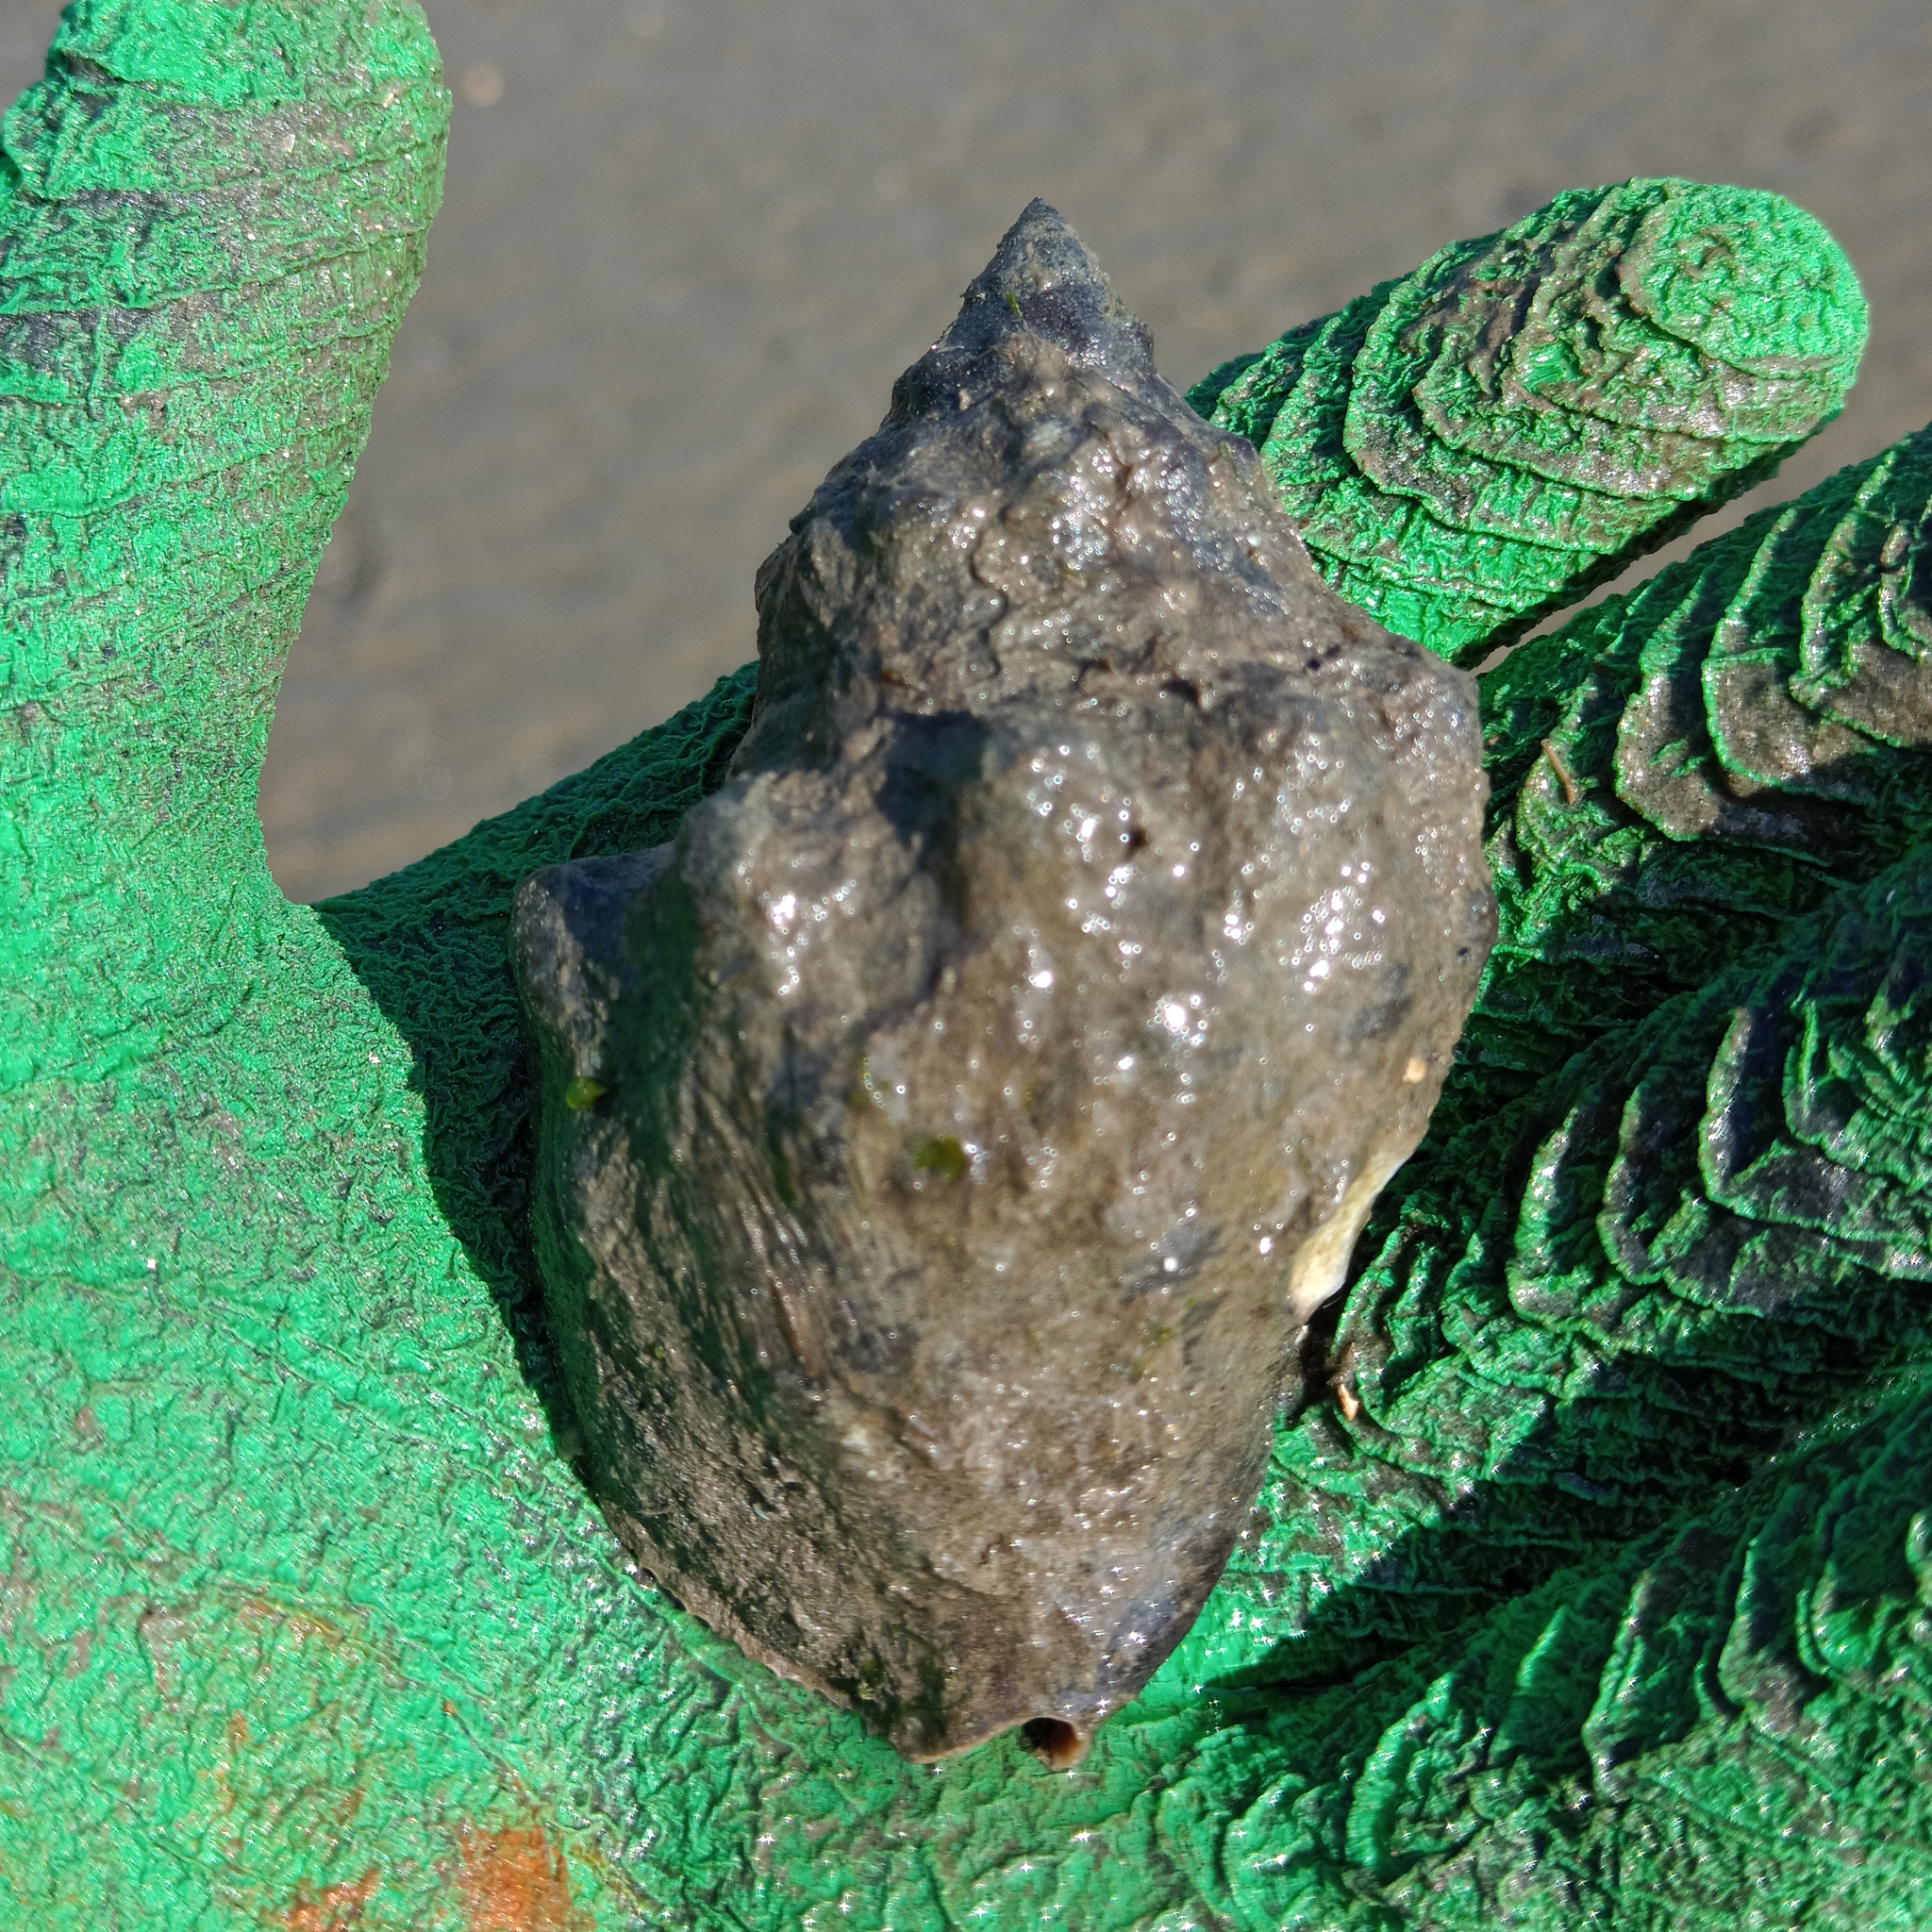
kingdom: Animalia
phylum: Mollusca
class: Gastropoda
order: Neogastropoda
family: Muricidae
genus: Stramonita
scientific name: Stramonita brasiliensis
